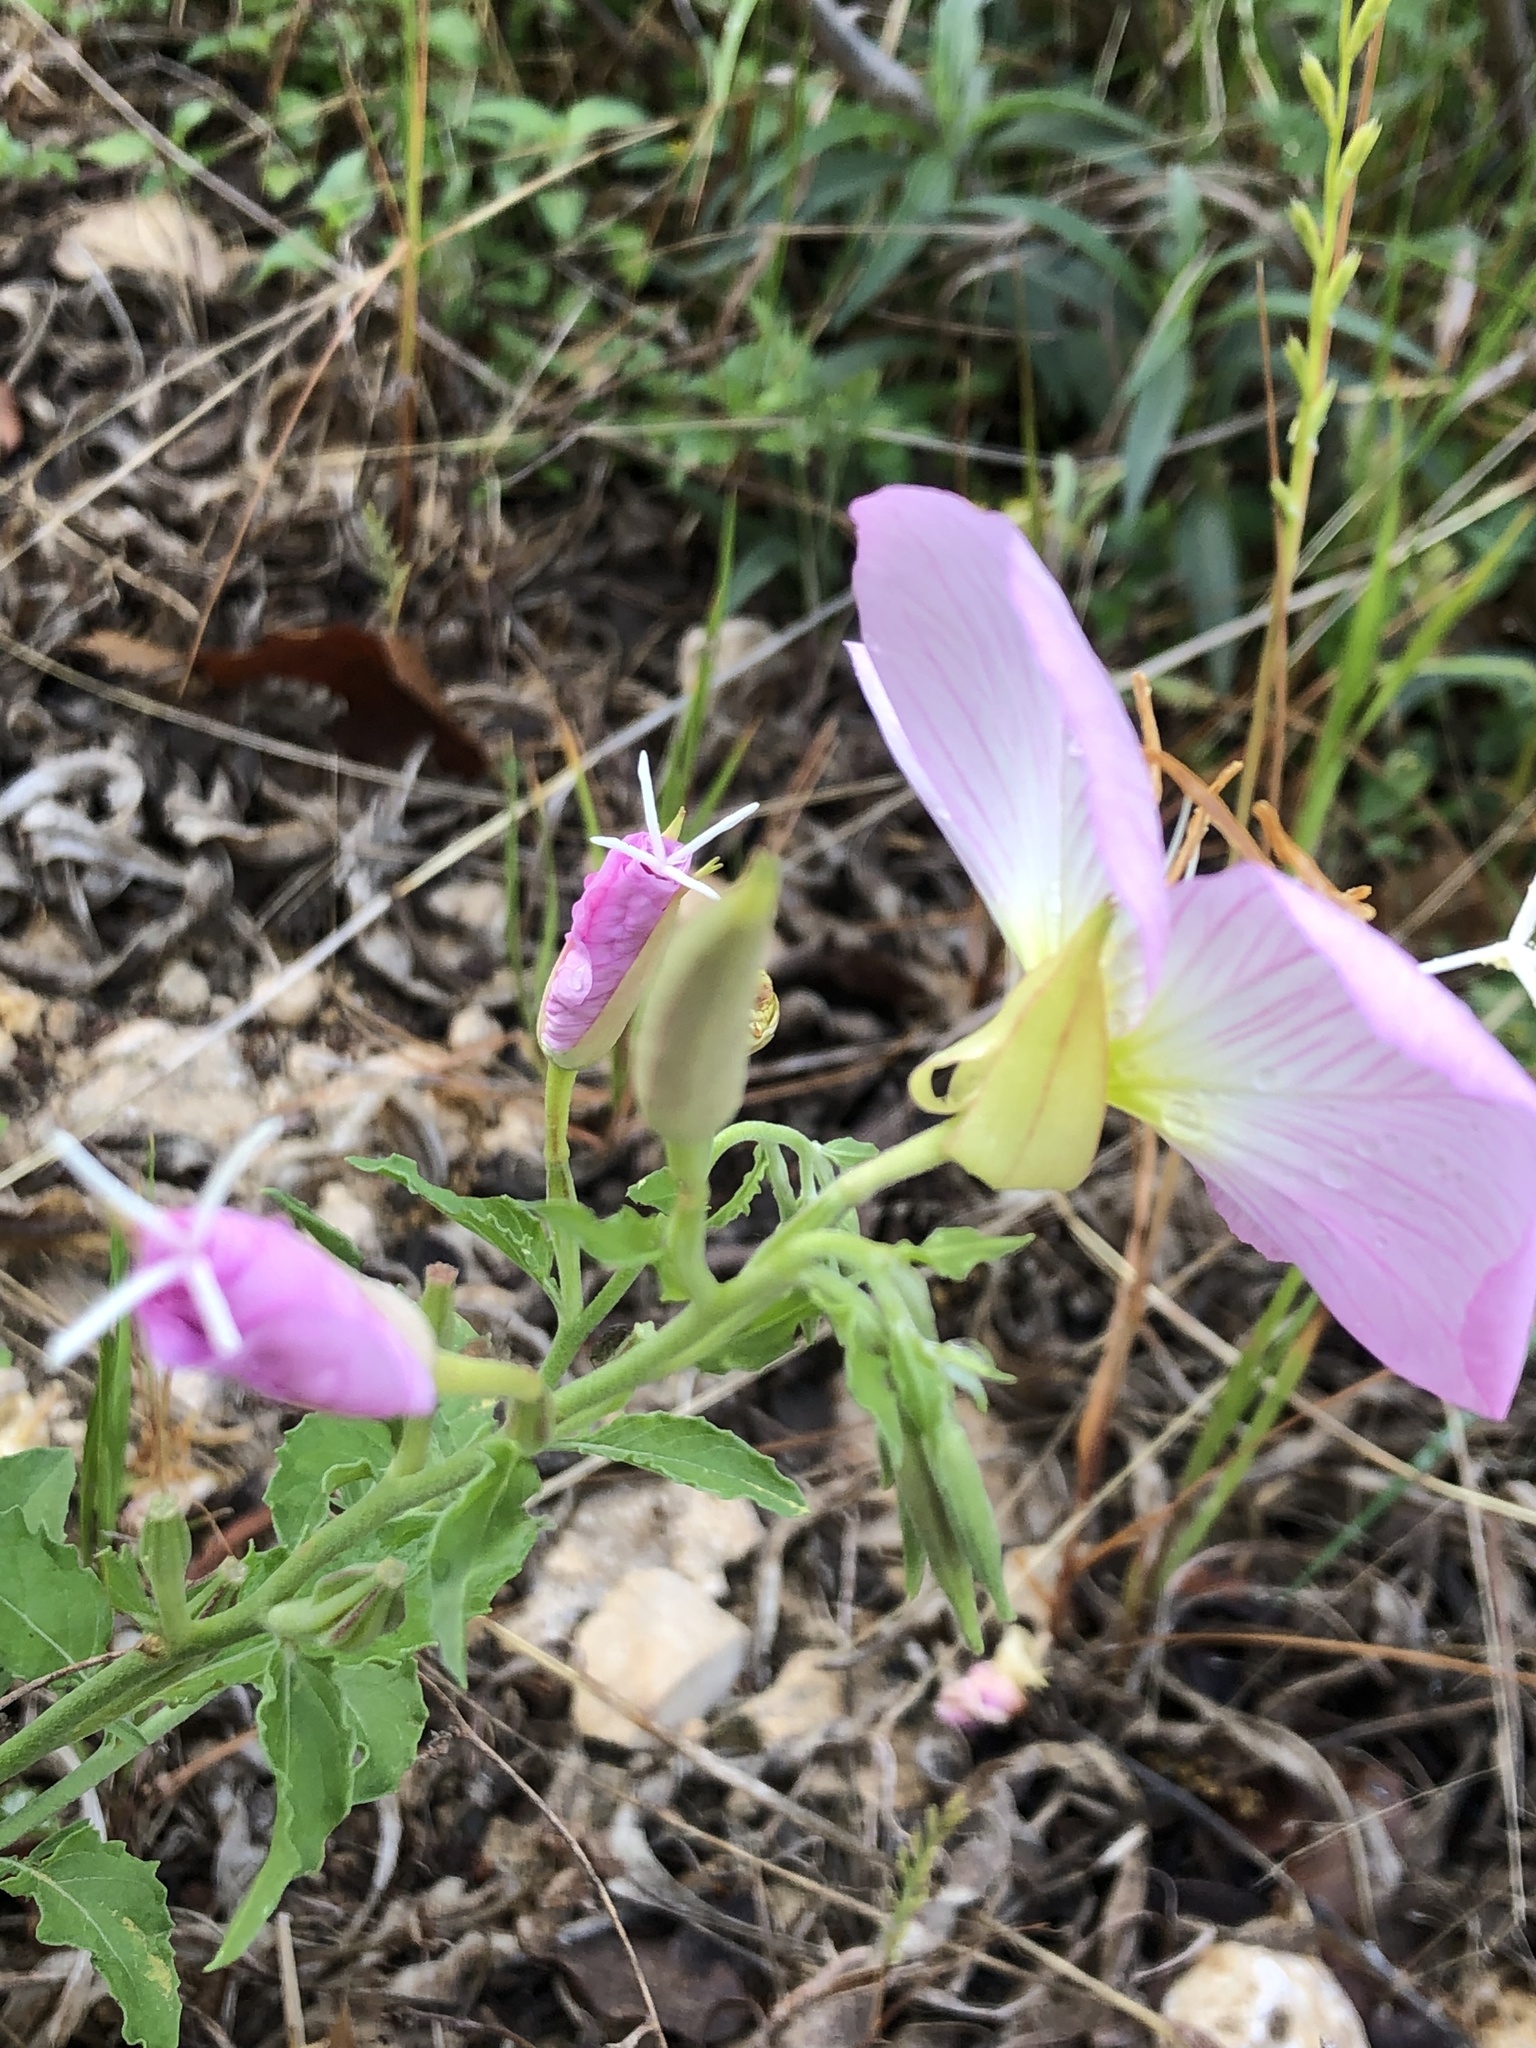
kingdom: Plantae
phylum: Tracheophyta
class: Magnoliopsida
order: Myrtales
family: Onagraceae
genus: Oenothera
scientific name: Oenothera speciosa
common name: White evening-primrose
